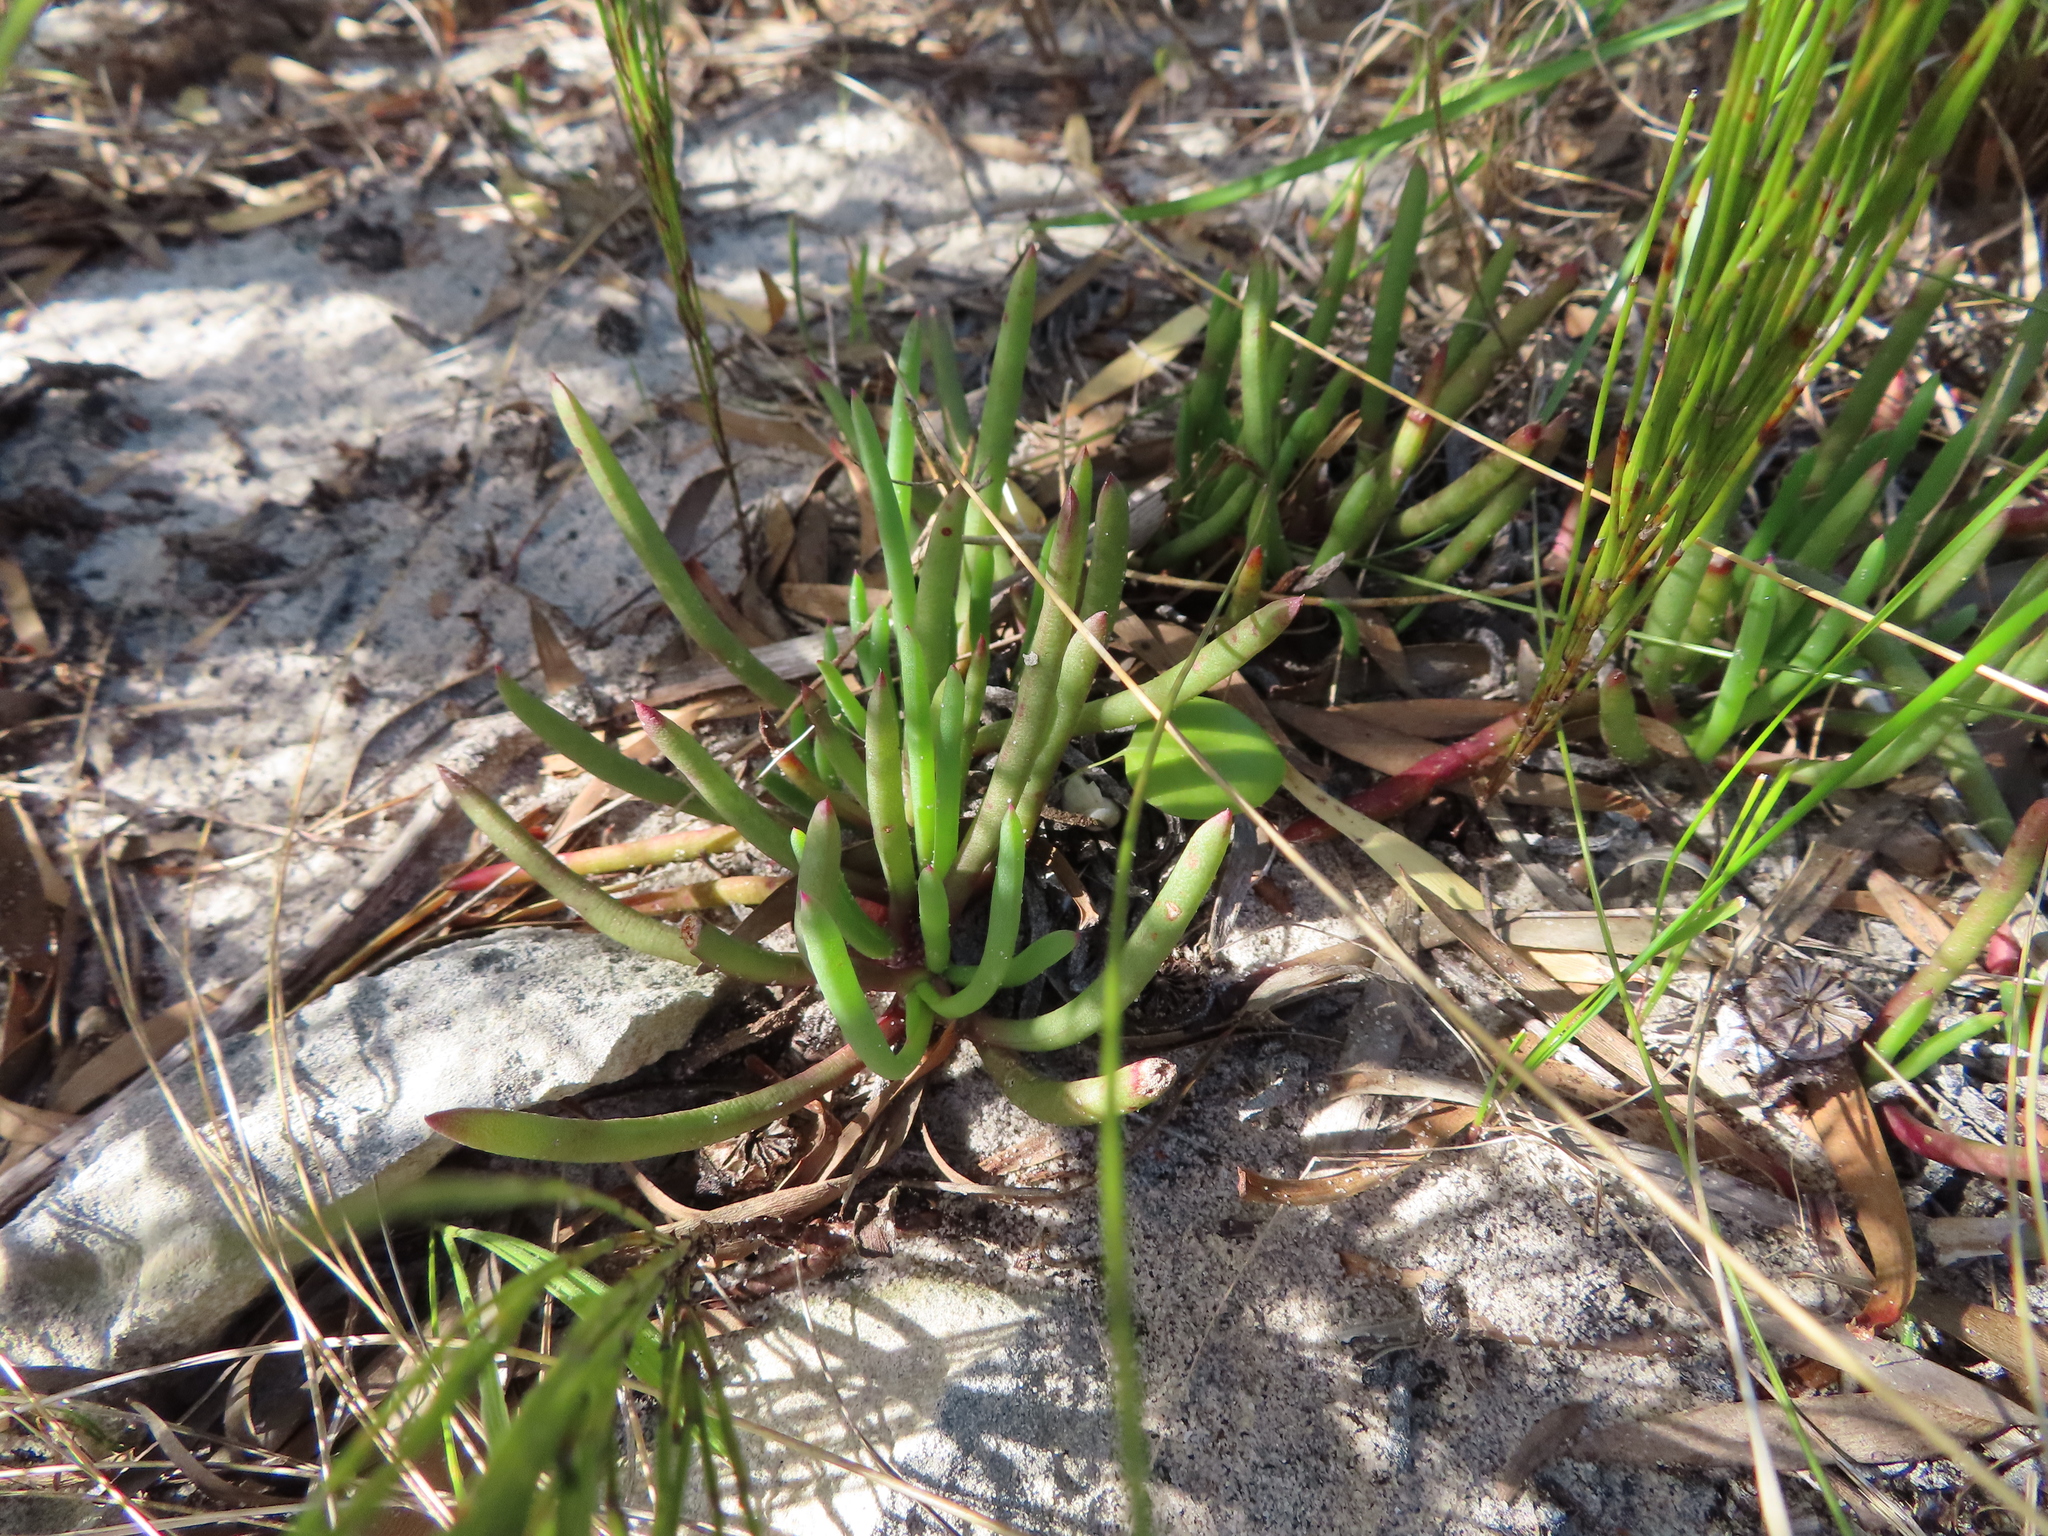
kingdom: Plantae
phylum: Tracheophyta
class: Magnoliopsida
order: Caryophyllales
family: Aizoaceae
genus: Jordaaniella
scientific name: Jordaaniella dubia
